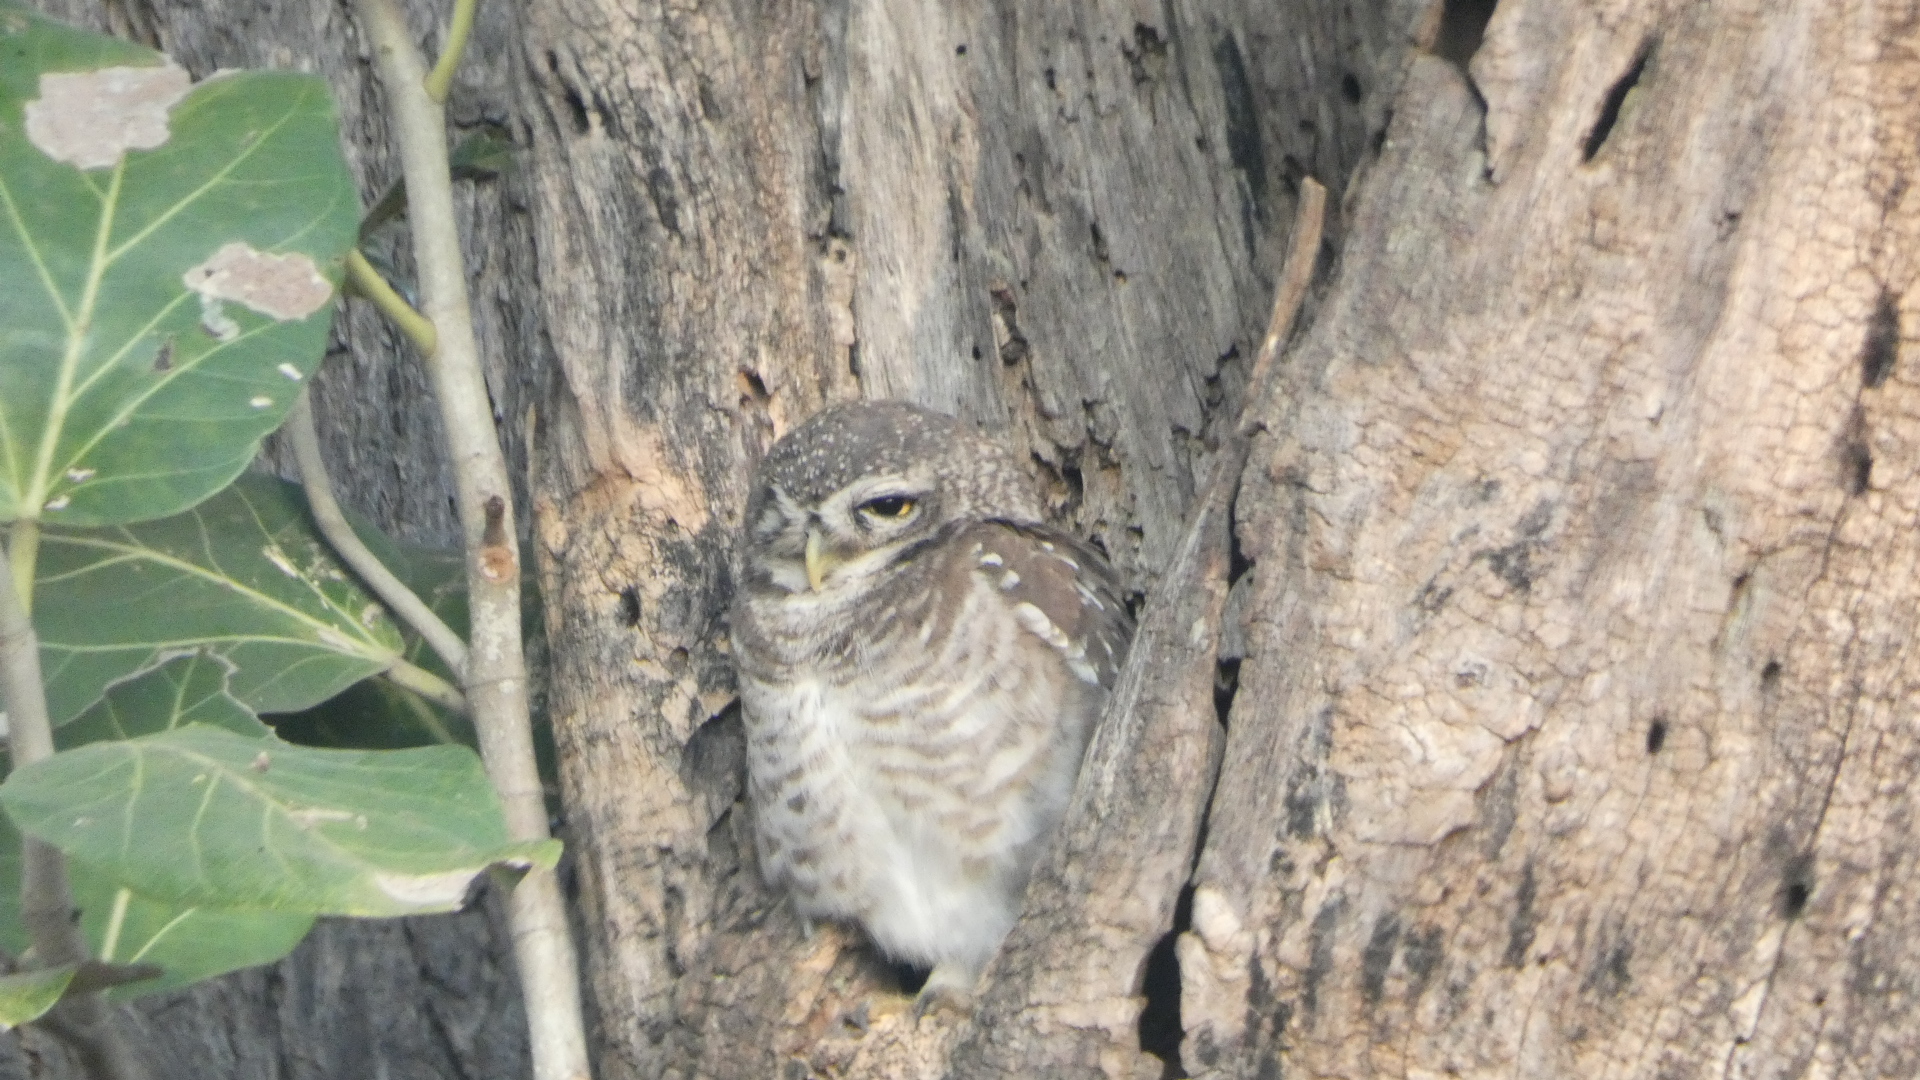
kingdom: Animalia
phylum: Chordata
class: Aves
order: Strigiformes
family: Strigidae
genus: Athene
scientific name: Athene brama
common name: Spotted owlet
